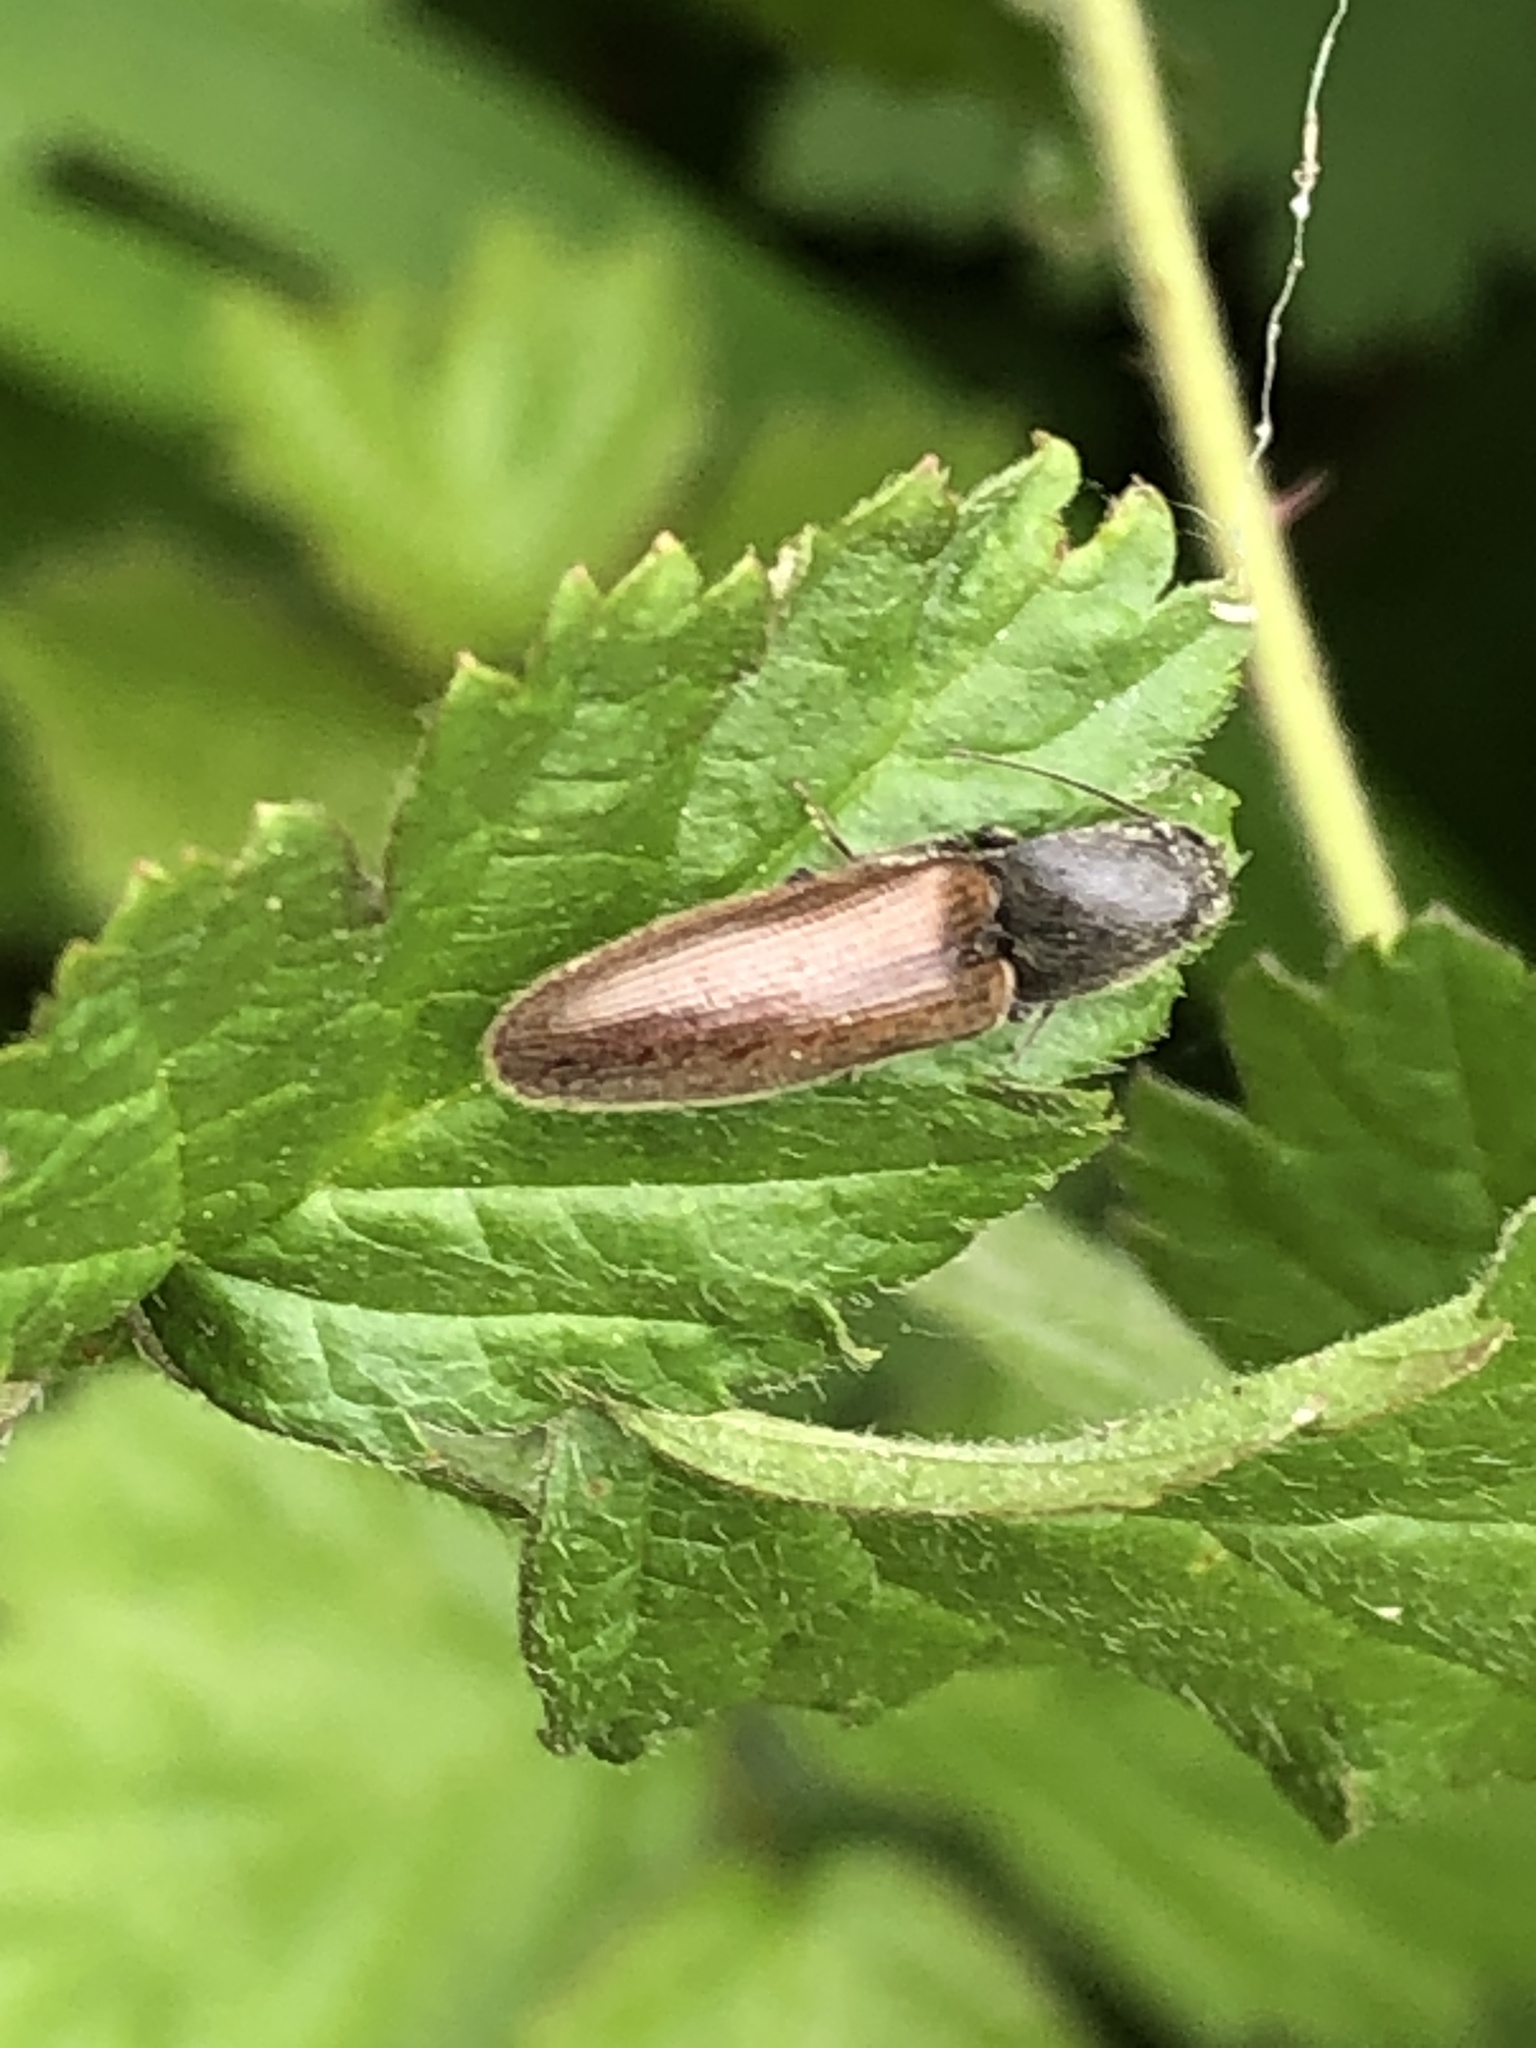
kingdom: Animalia
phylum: Arthropoda
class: Insecta
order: Coleoptera
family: Elateridae
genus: Athous
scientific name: Athous haemorrhoidalis
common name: Red-brown click beetle
